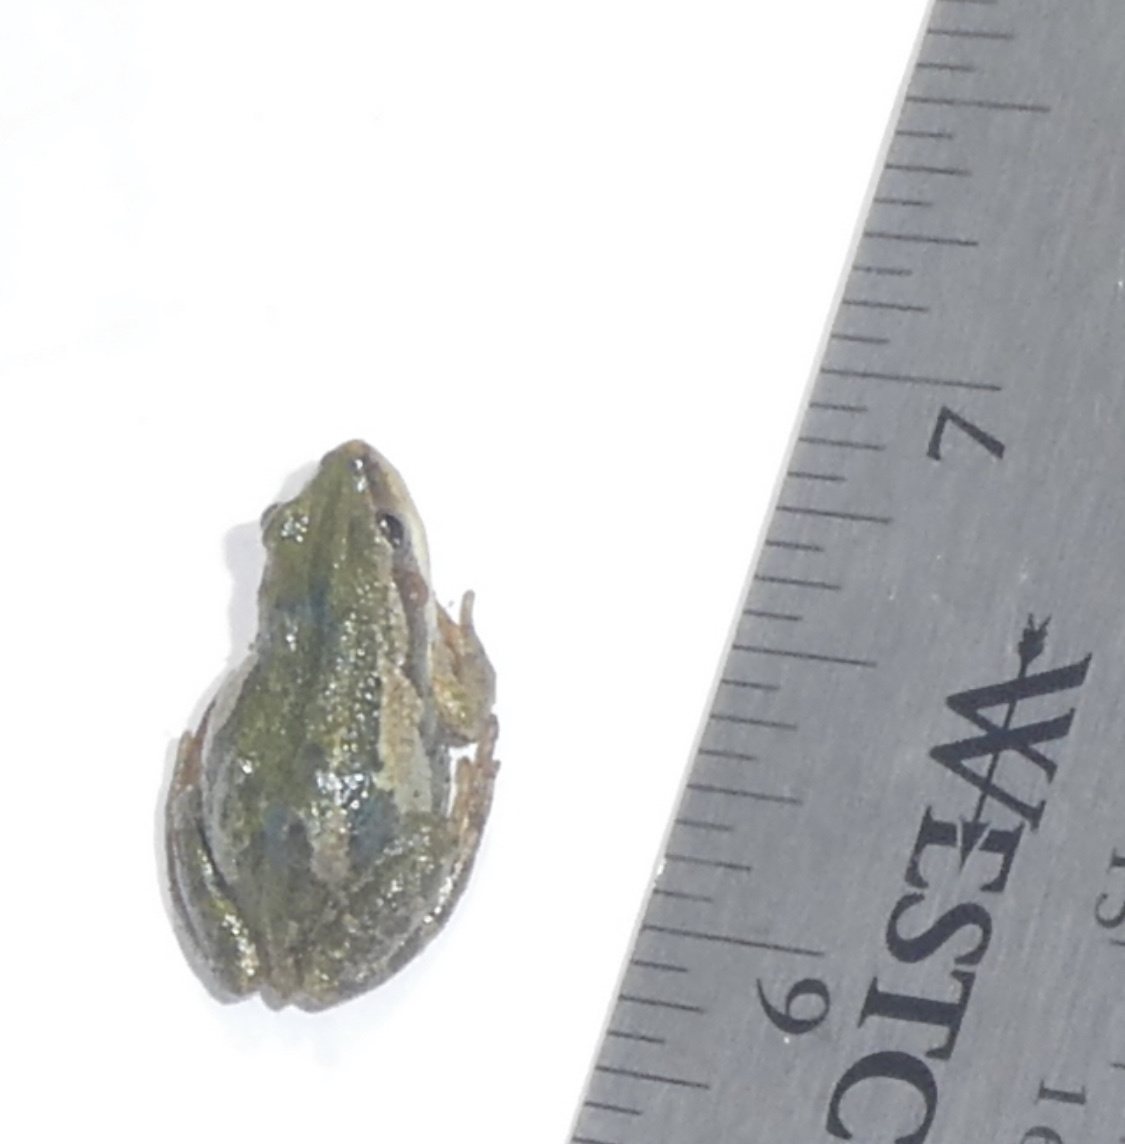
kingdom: Animalia
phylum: Chordata
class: Amphibia
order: Anura
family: Hylidae
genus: Pseudacris
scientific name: Pseudacris maculata
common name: Boreal chorus frog
